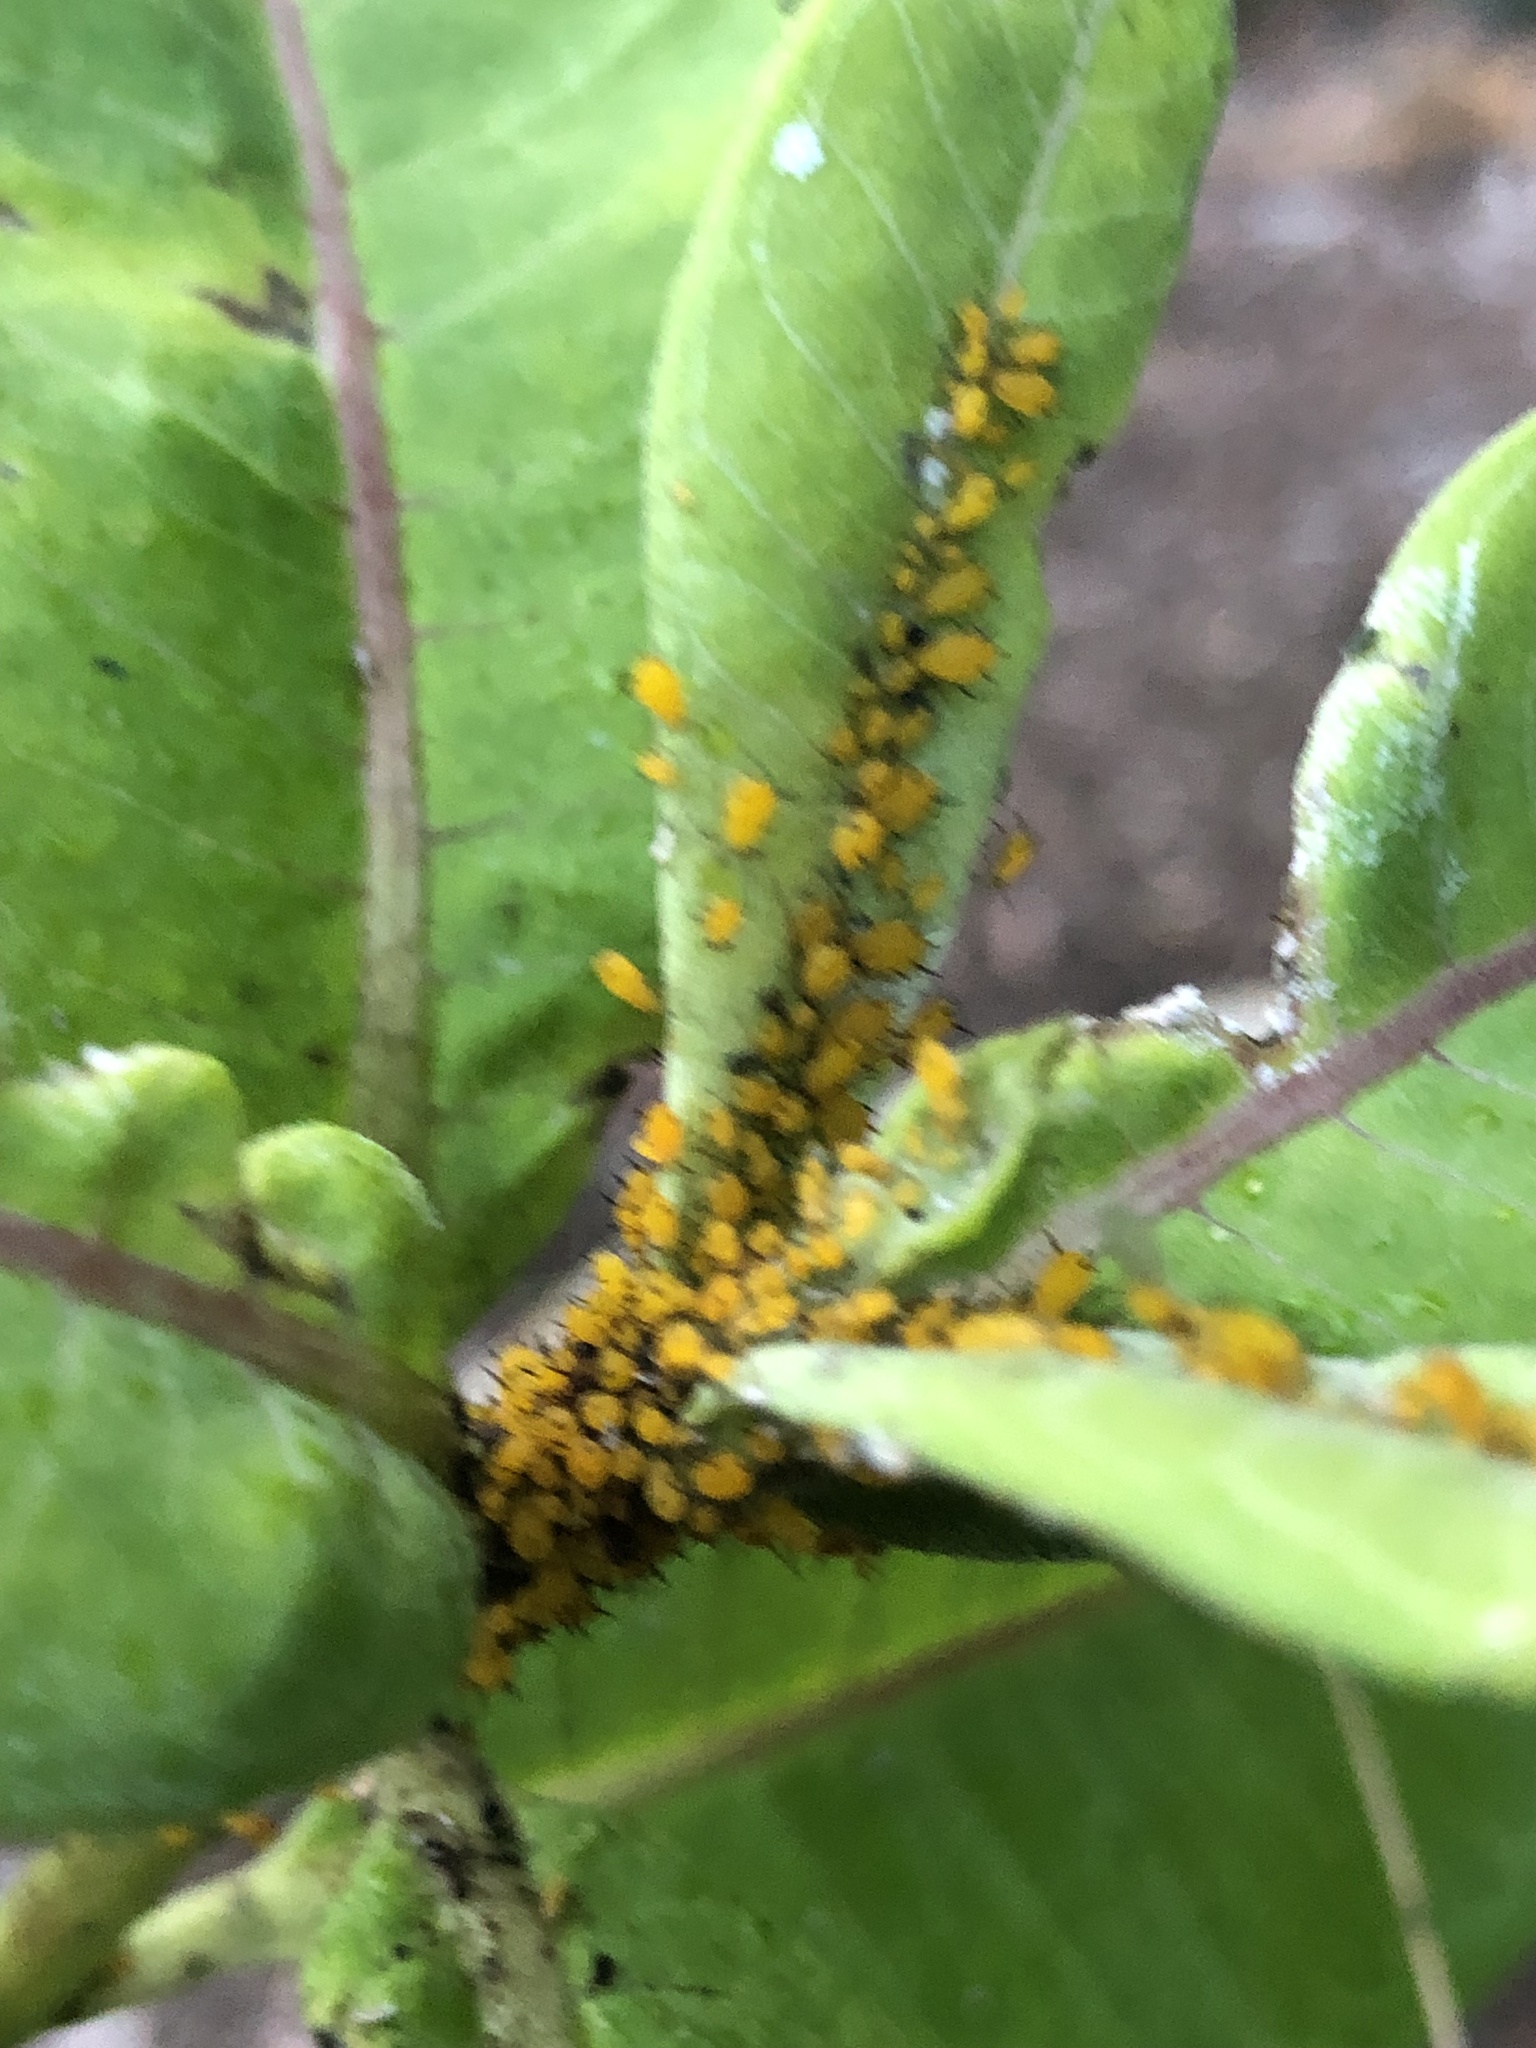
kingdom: Animalia
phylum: Arthropoda
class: Insecta
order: Hemiptera
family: Aphididae
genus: Aphis
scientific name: Aphis nerii
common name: Oleander aphid
